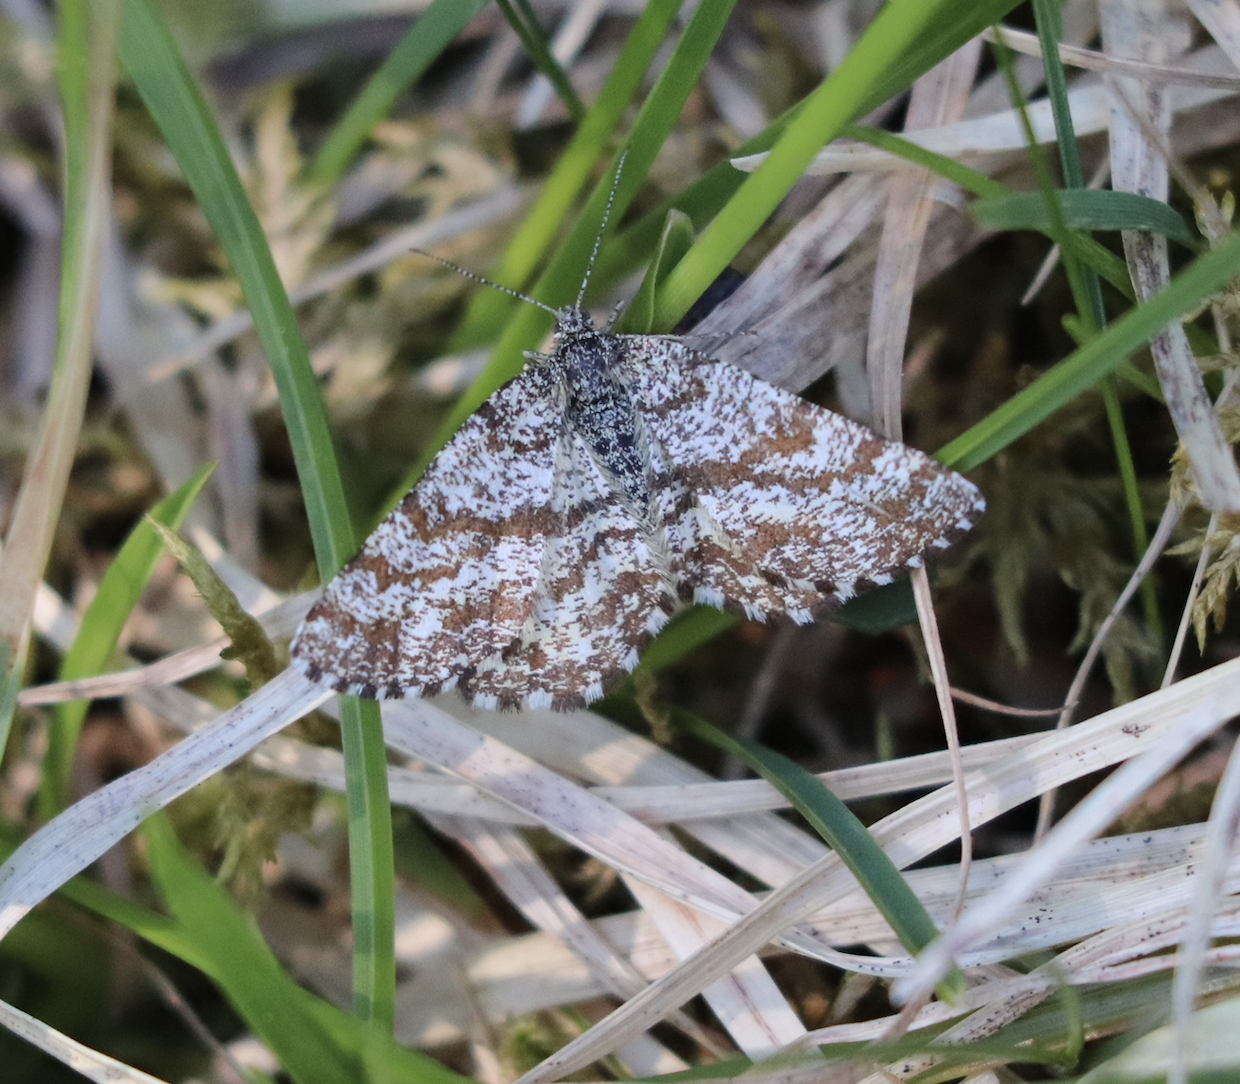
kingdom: Animalia
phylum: Arthropoda
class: Insecta
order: Lepidoptera
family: Geometridae
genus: Ematurga
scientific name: Ematurga atomaria
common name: Common heath
